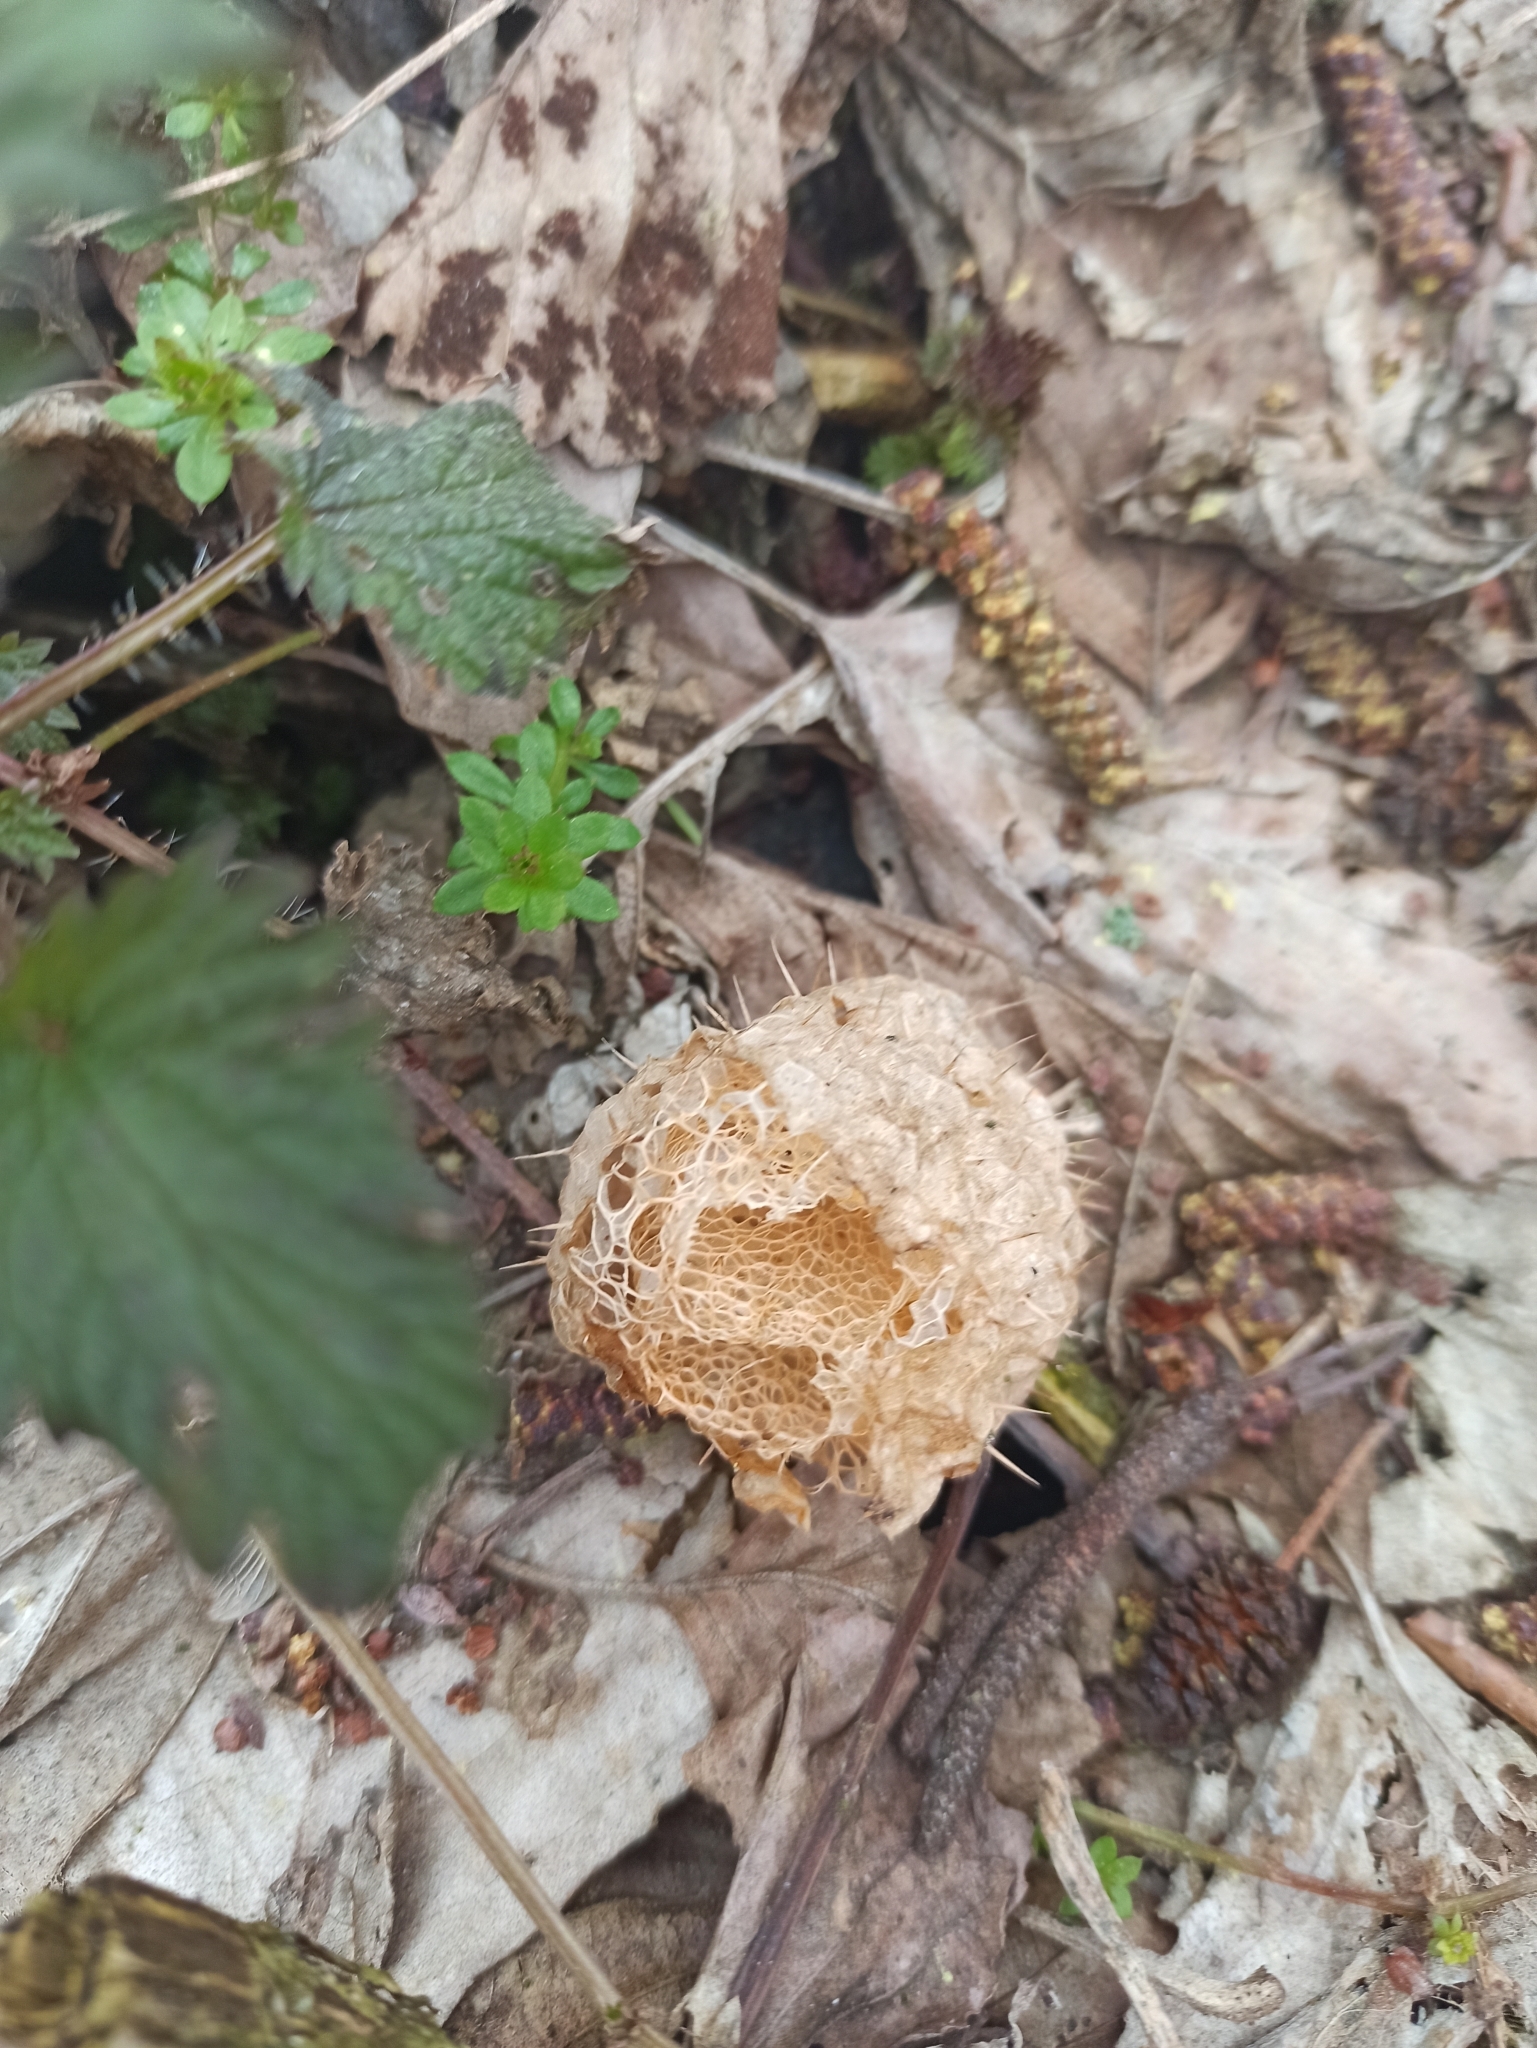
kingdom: Plantae
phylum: Tracheophyta
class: Magnoliopsida
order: Cucurbitales
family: Cucurbitaceae
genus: Echinocystis
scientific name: Echinocystis lobata
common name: Wild cucumber
